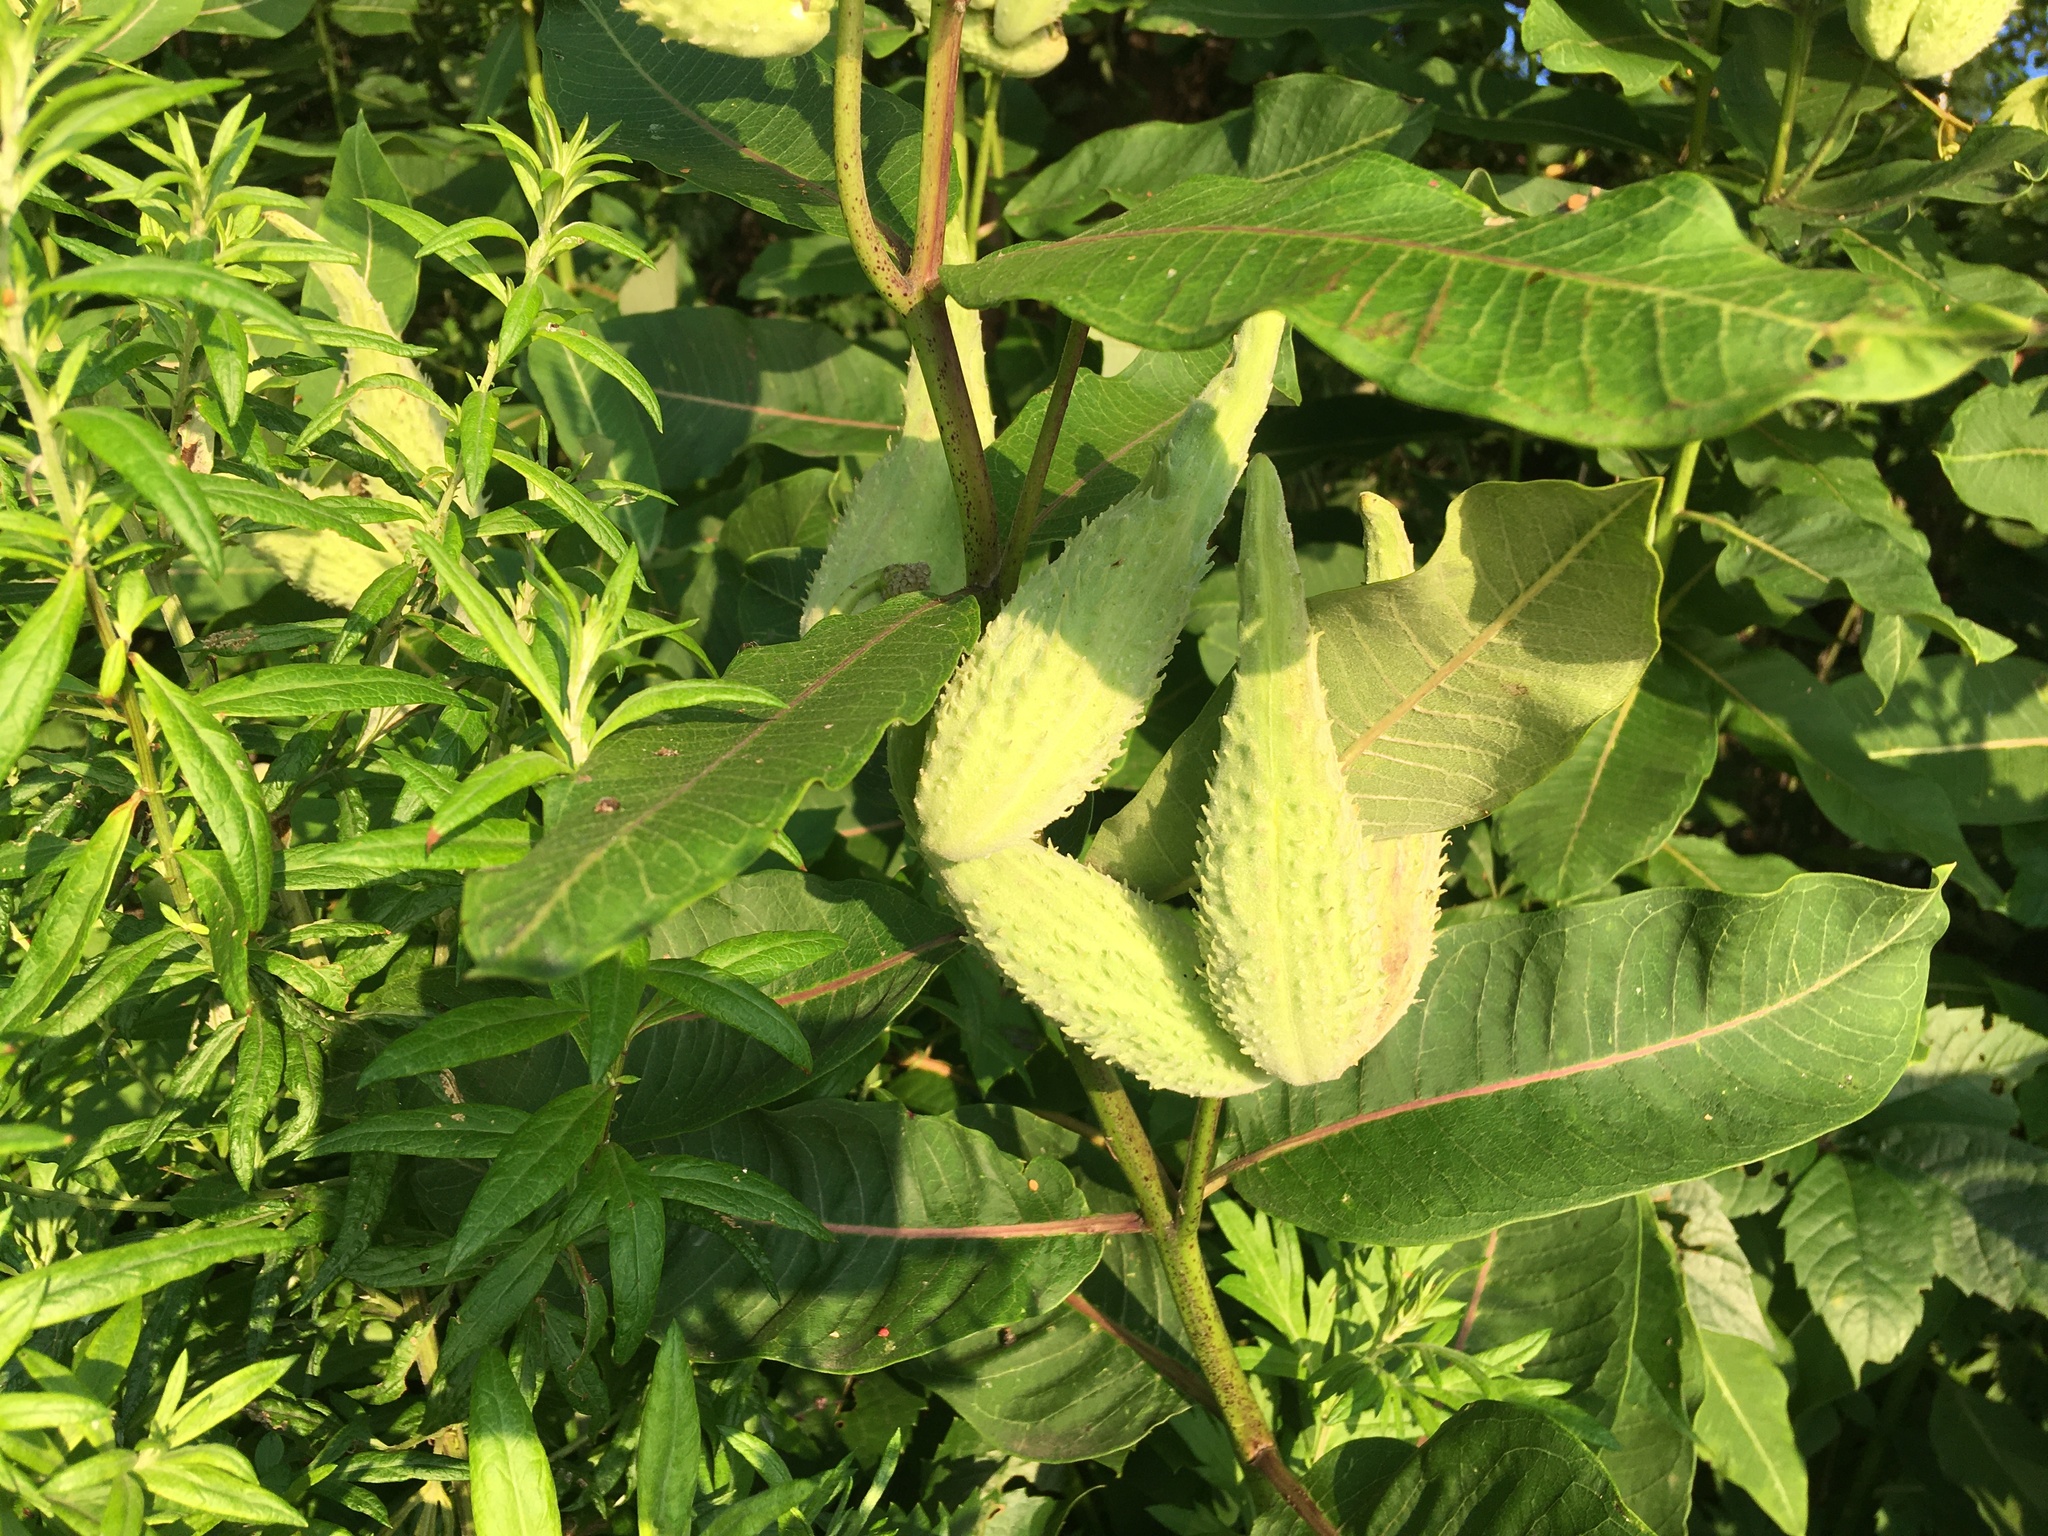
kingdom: Plantae
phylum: Tracheophyta
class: Magnoliopsida
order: Gentianales
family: Apocynaceae
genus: Asclepias
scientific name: Asclepias syriaca
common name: Common milkweed
